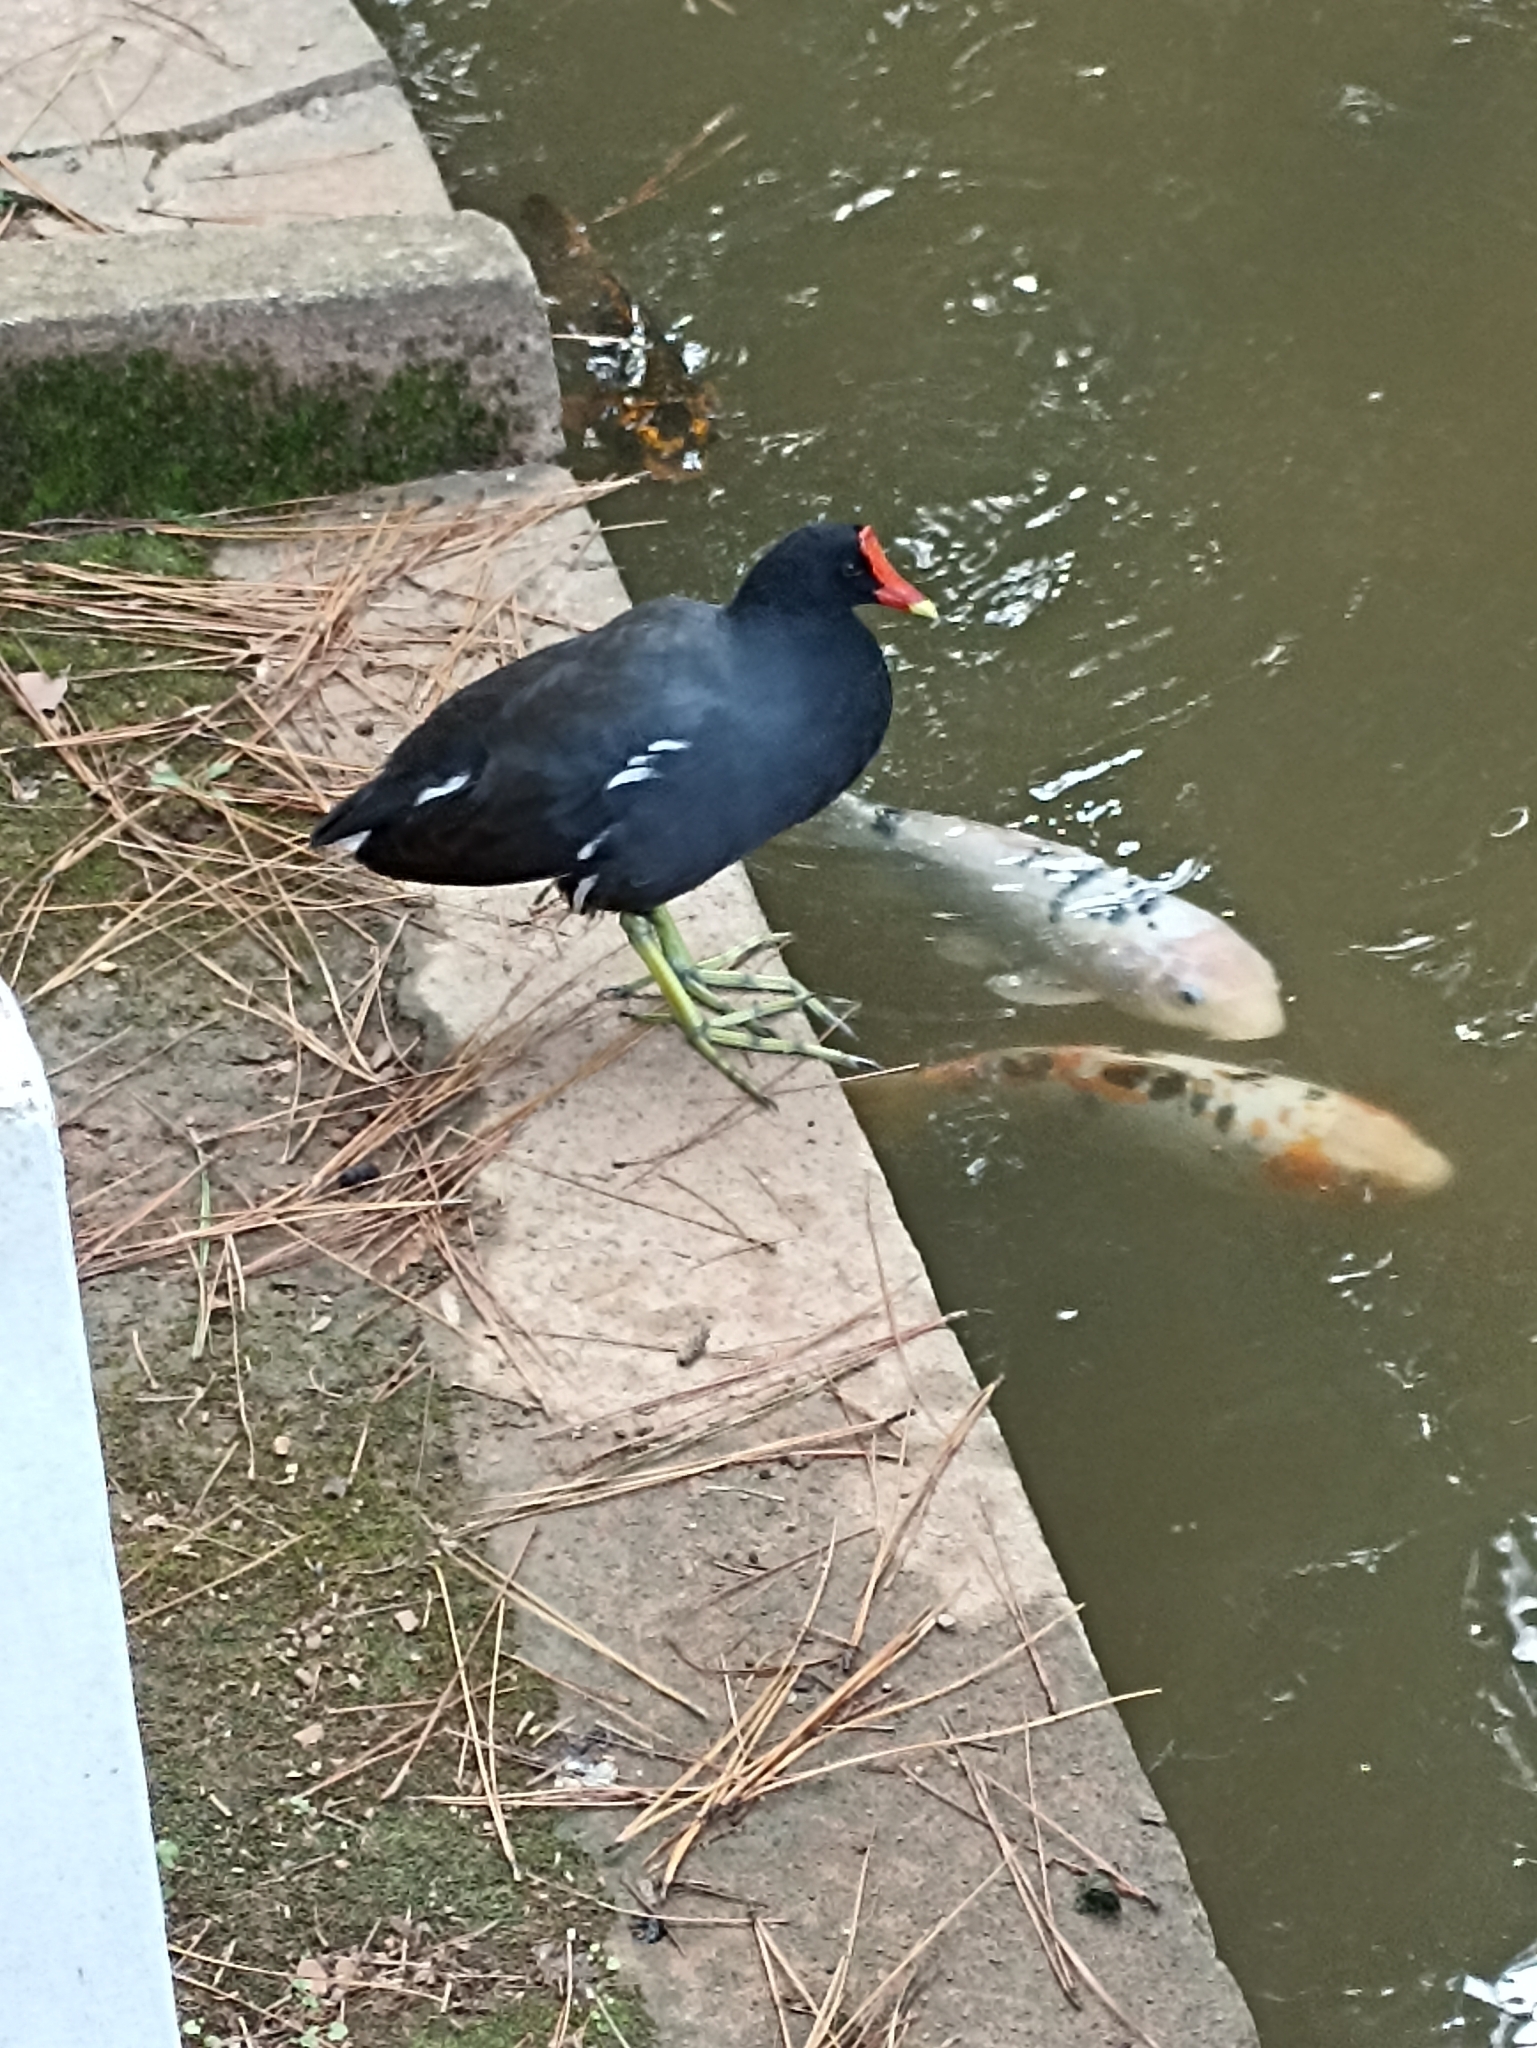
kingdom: Animalia
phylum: Chordata
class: Aves
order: Gruiformes
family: Rallidae
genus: Gallinula
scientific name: Gallinula chloropus
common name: Common moorhen
